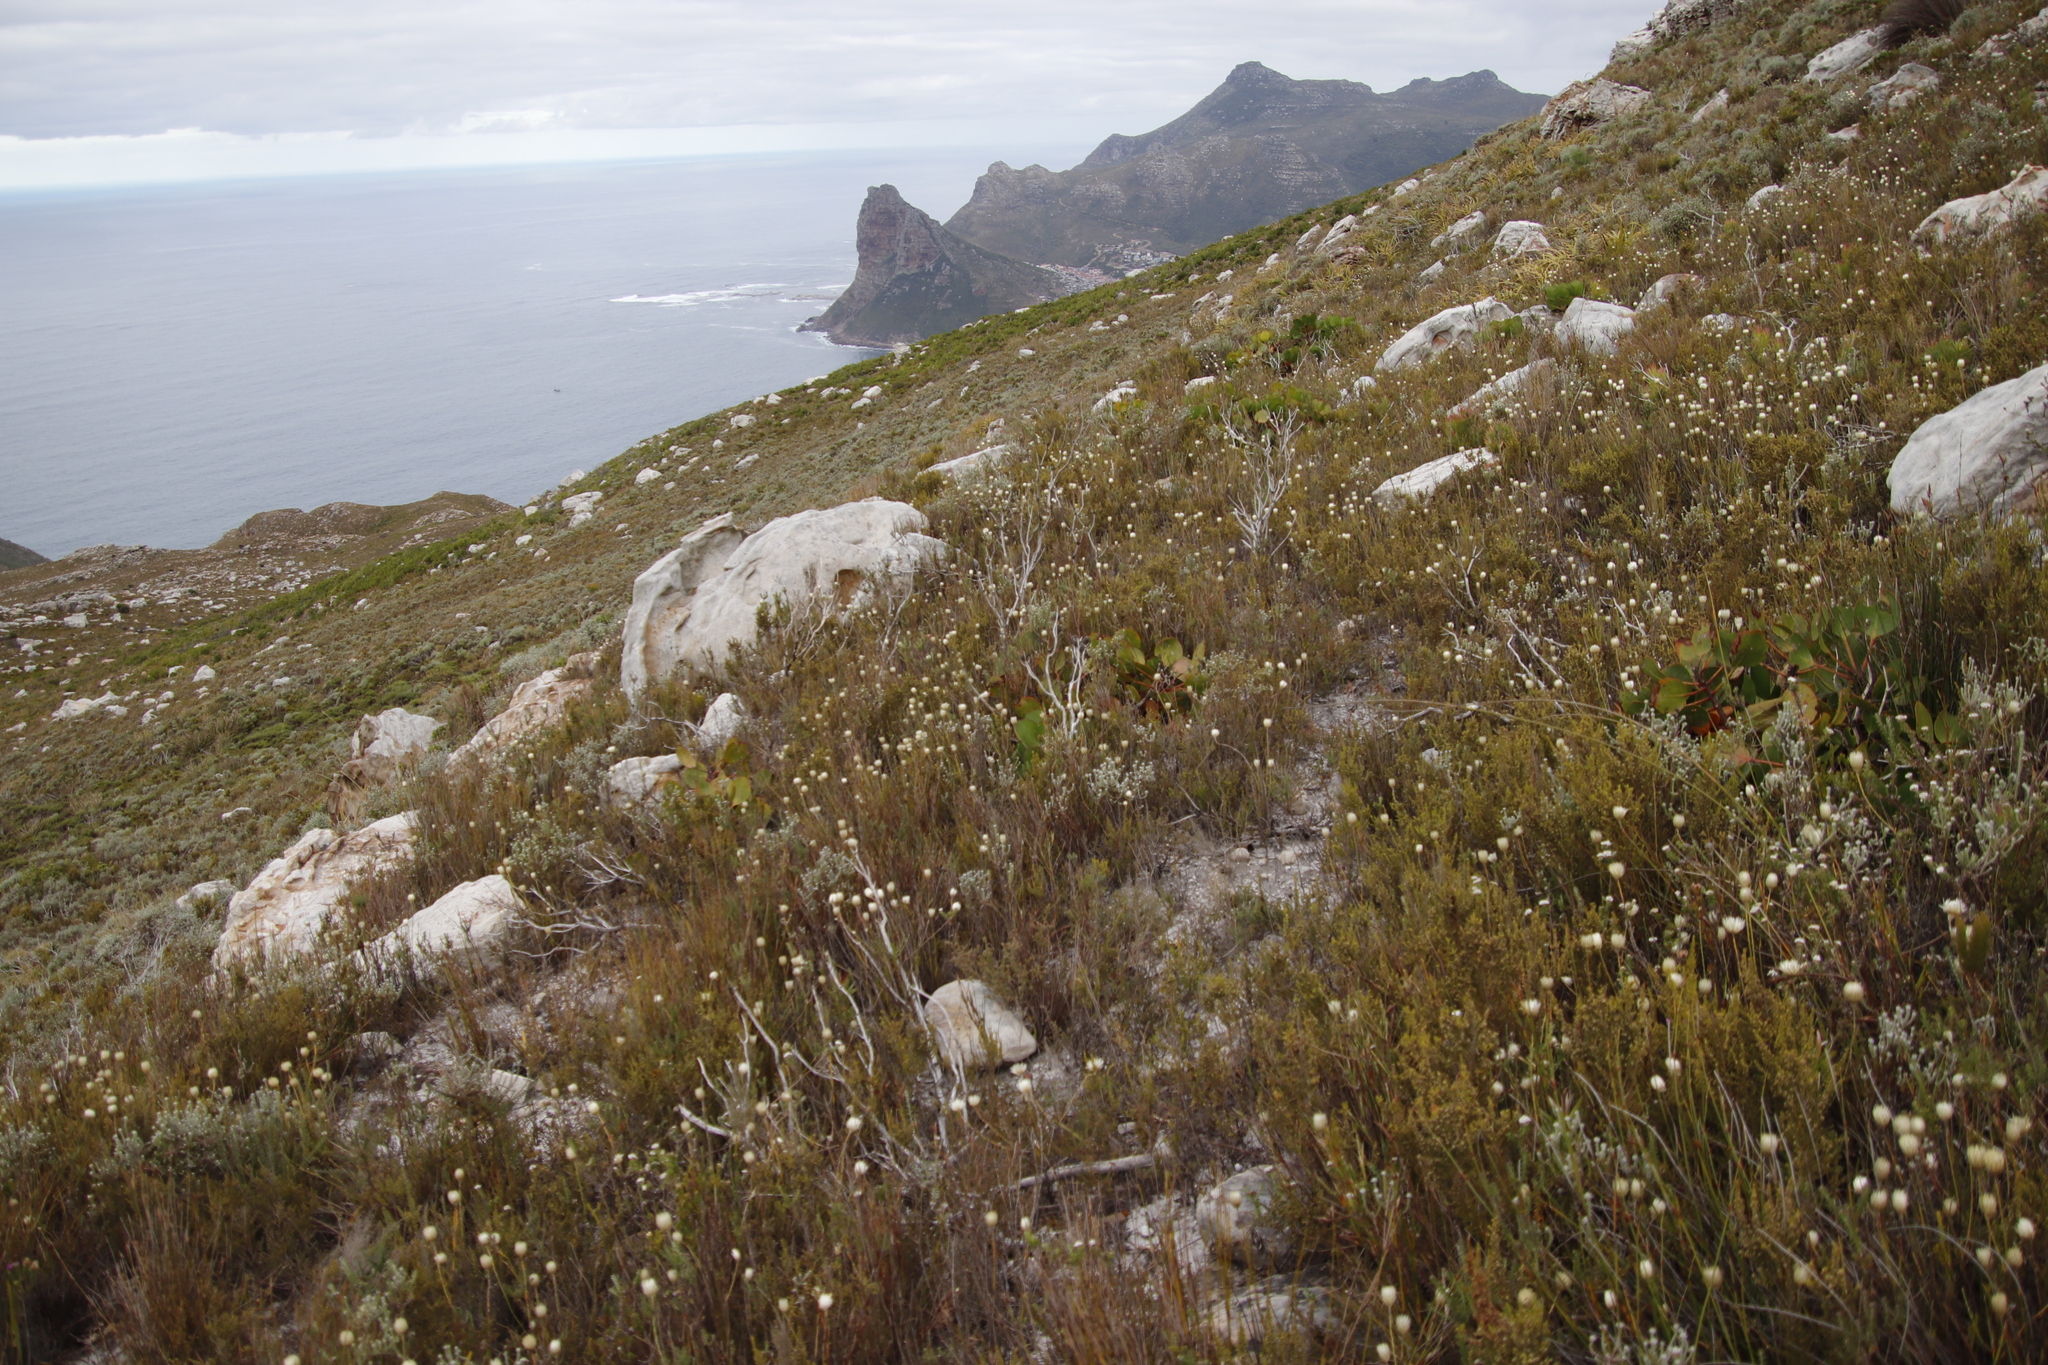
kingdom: Plantae
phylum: Tracheophyta
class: Magnoliopsida
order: Asterales
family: Asteraceae
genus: Edmondia
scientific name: Edmondia sesamoides
